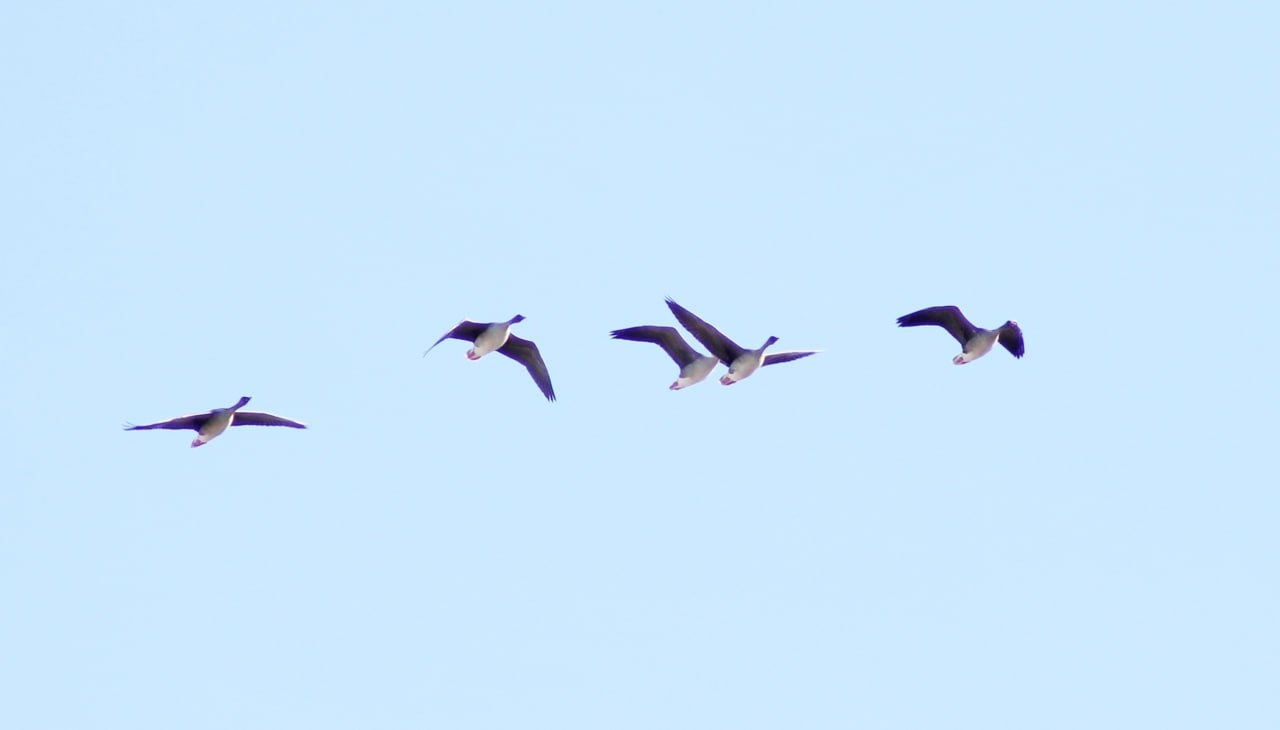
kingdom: Animalia
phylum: Chordata
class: Aves
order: Anseriformes
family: Anatidae
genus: Anser
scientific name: Anser fabalis
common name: Bean goose
